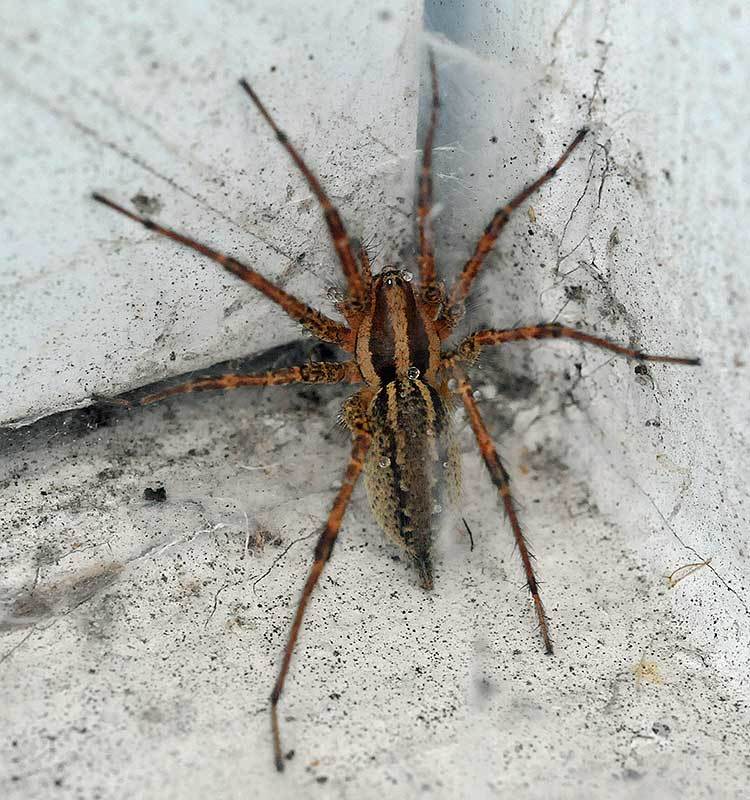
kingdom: Animalia
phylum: Arthropoda
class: Arachnida
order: Araneae
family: Agelenidae
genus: Agelenopsis
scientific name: Agelenopsis
